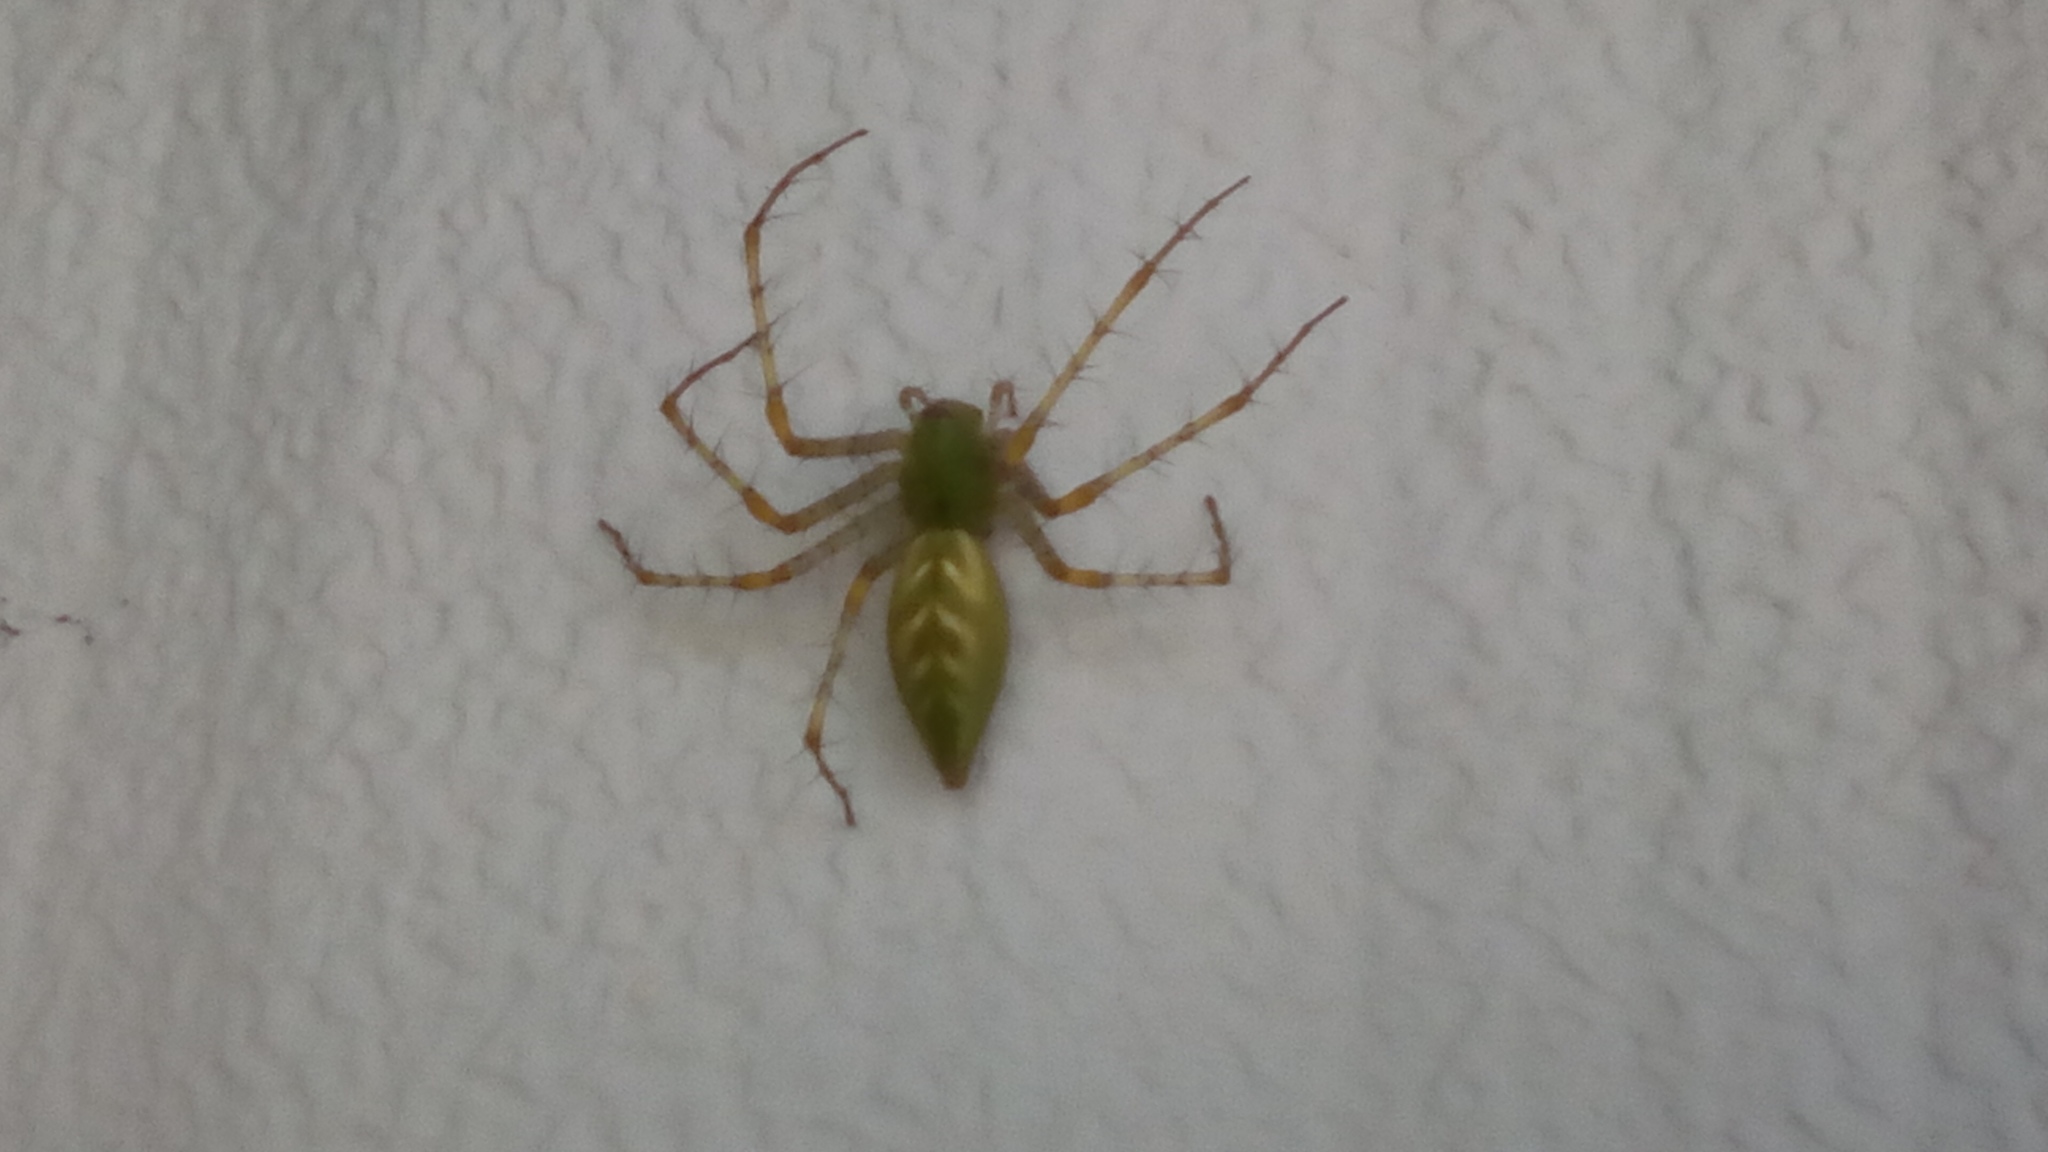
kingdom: Animalia
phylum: Arthropoda
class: Arachnida
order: Araneae
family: Oxyopidae
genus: Peucetia
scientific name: Peucetia viridans
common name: Lynx spiders
